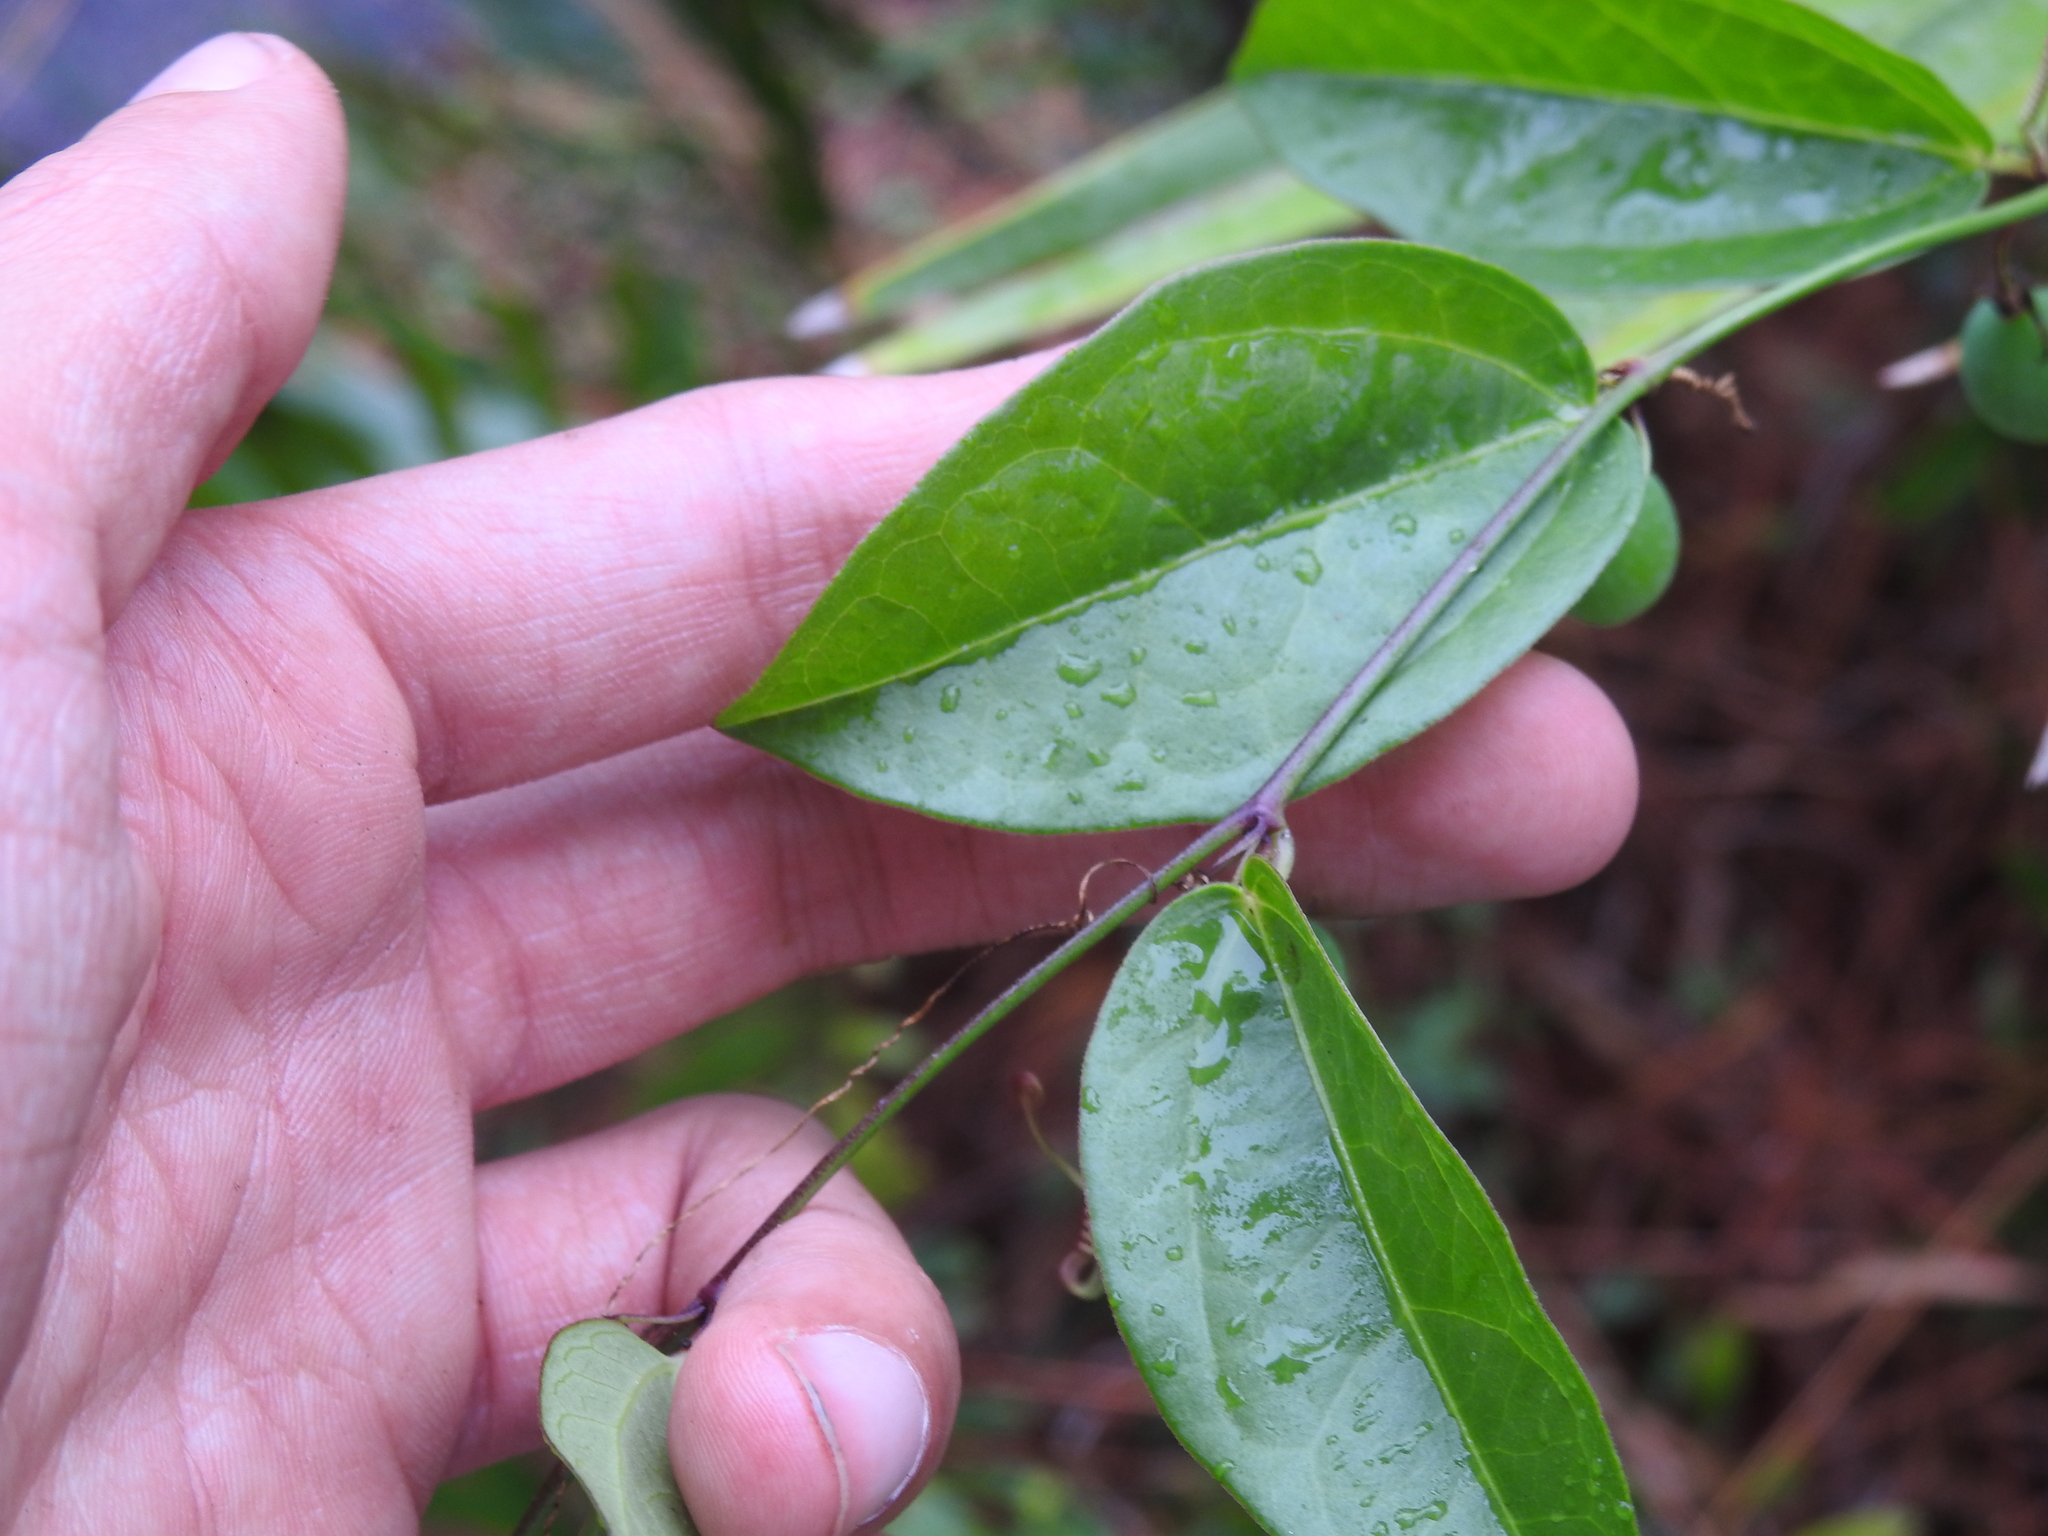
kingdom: Plantae
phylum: Tracheophyta
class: Magnoliopsida
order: Malpighiales
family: Passifloraceae
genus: Passiflora
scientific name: Passiflora pallida
